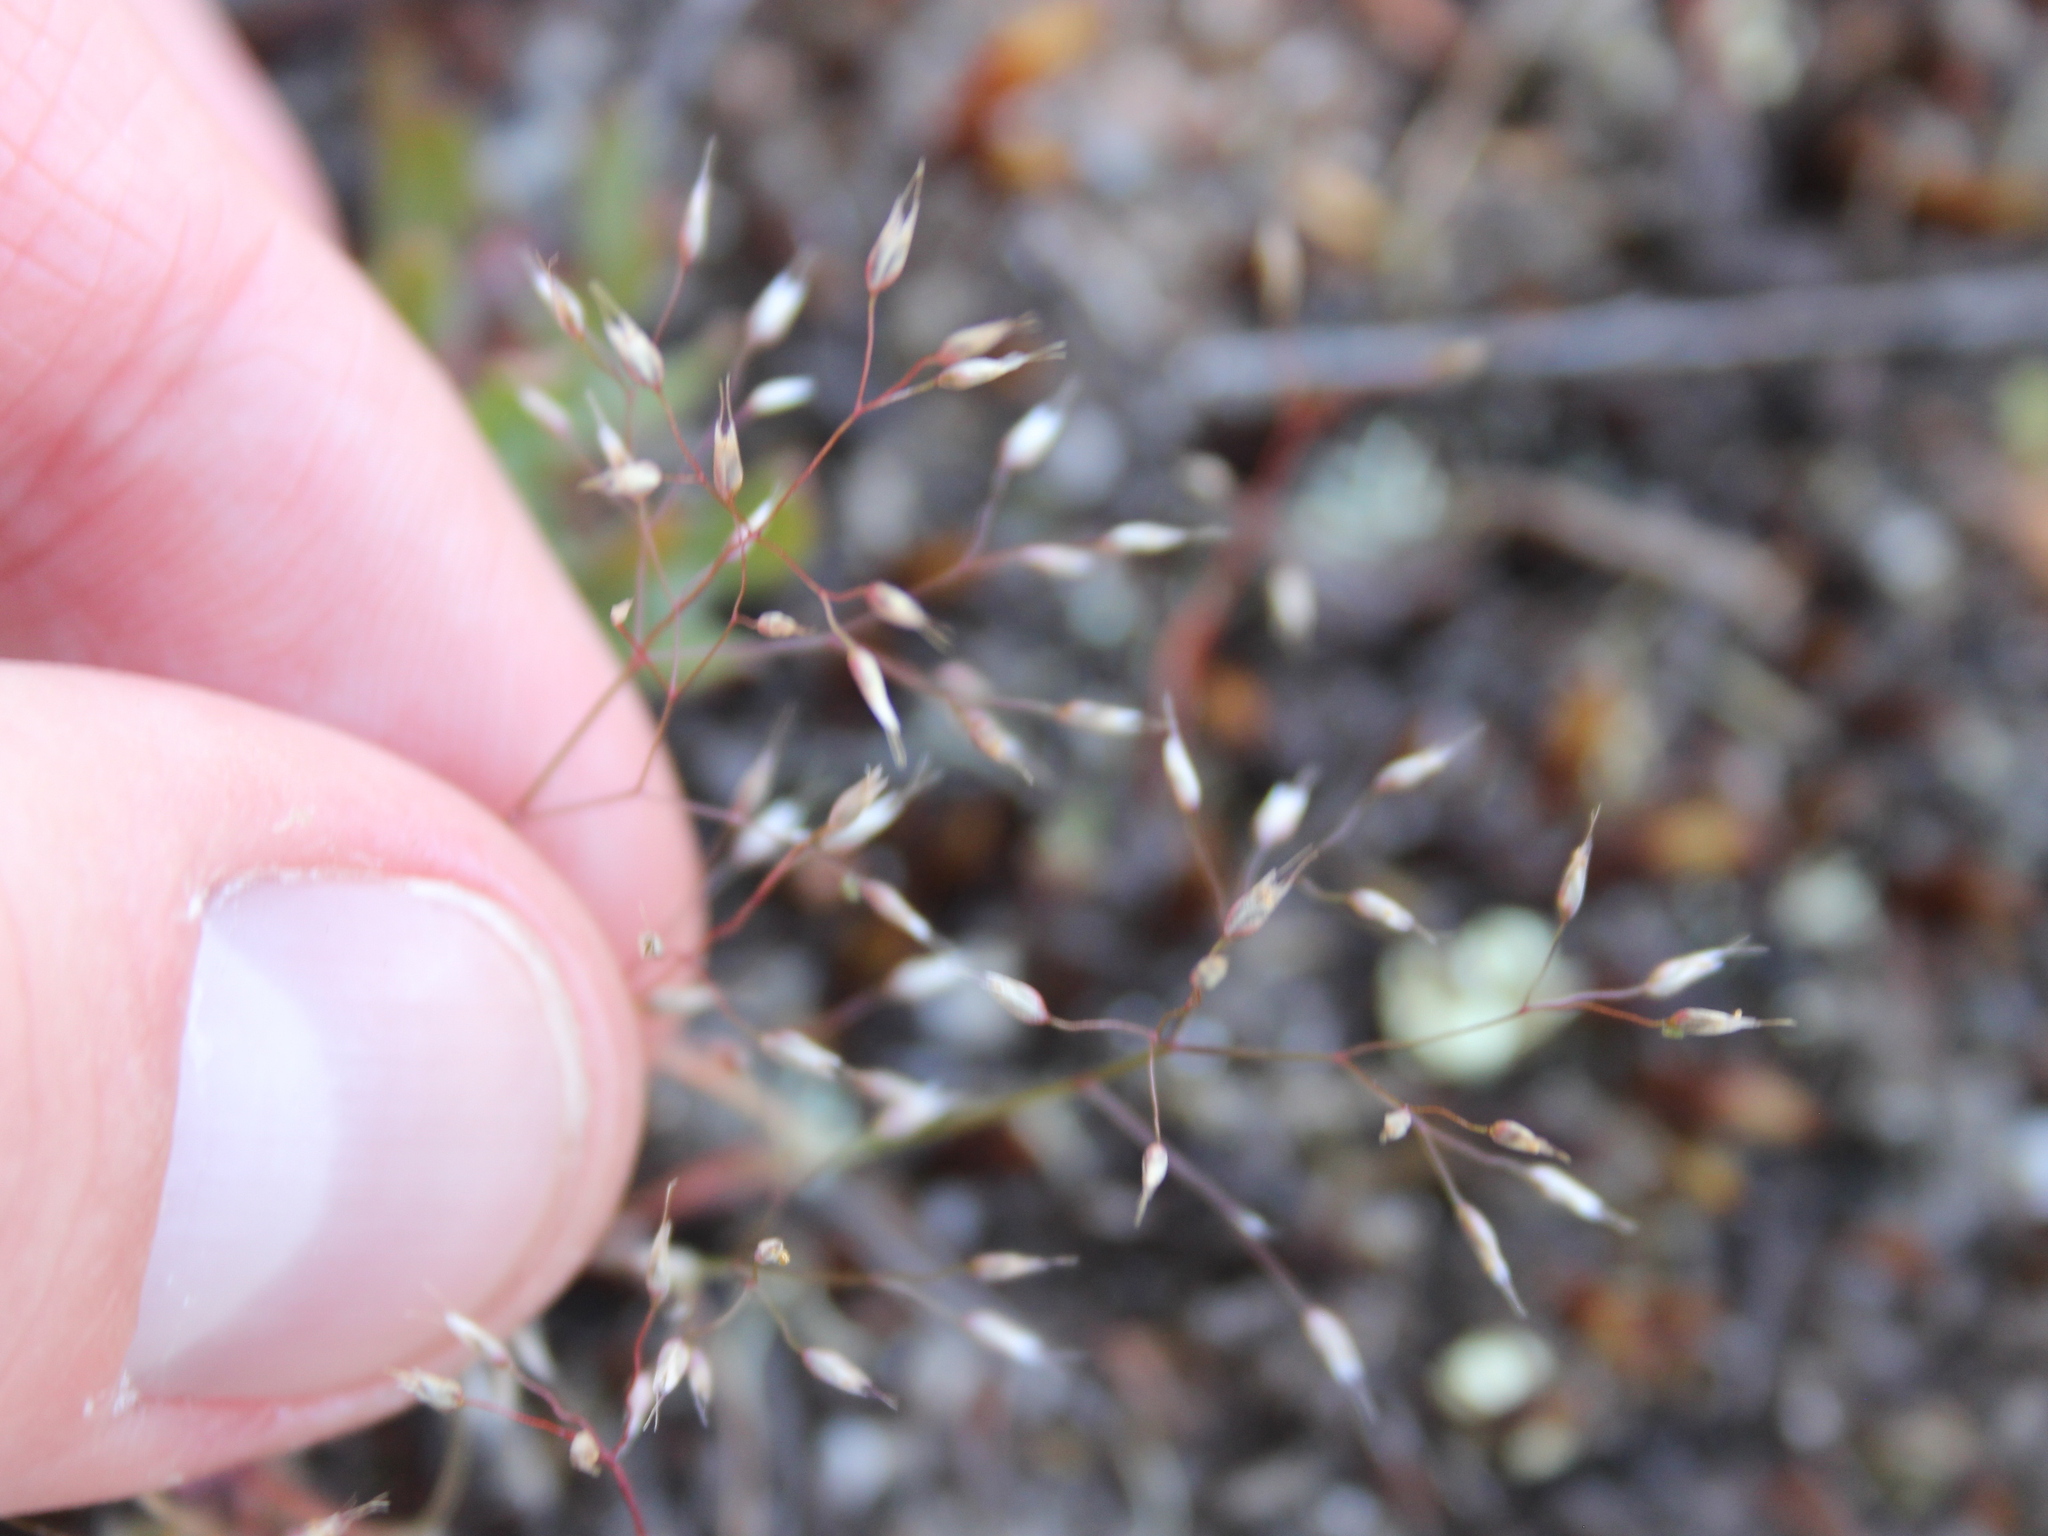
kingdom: Plantae
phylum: Tracheophyta
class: Liliopsida
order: Poales
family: Poaceae
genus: Aira
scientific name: Aira caryophyllea
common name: Silver hairgrass
